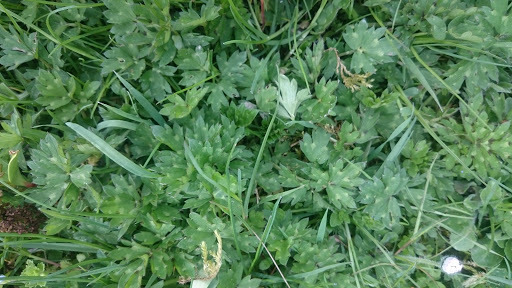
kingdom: Plantae
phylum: Tracheophyta
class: Magnoliopsida
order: Ranunculales
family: Ranunculaceae
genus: Ranunculus
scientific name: Ranunculus repens
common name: Creeping buttercup
